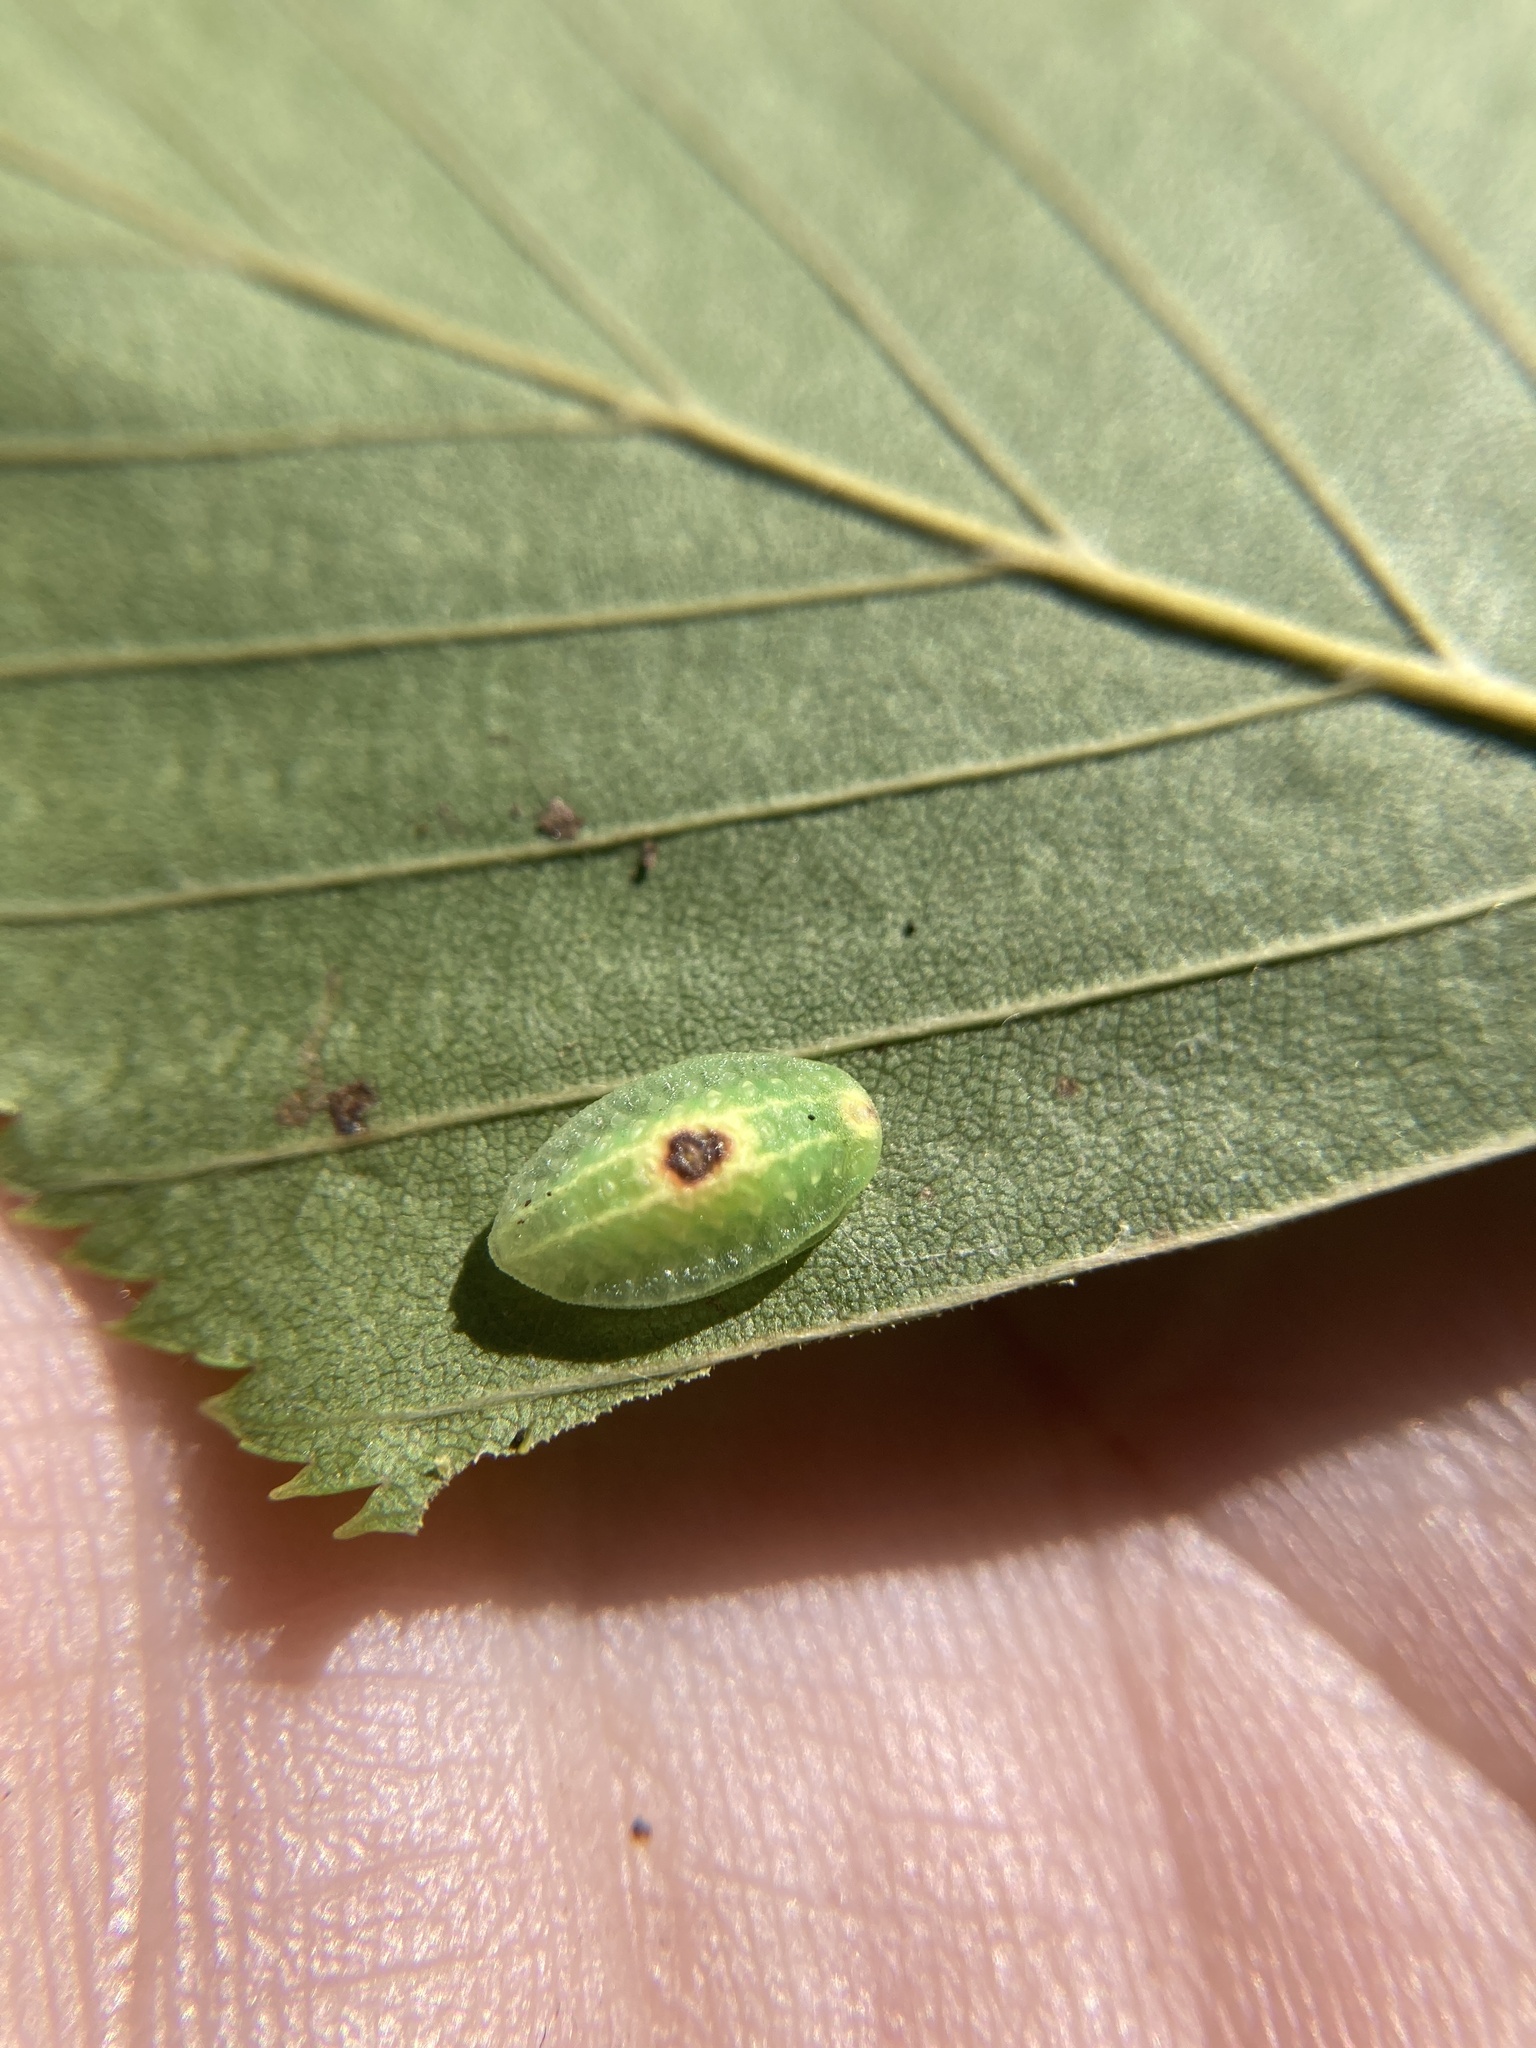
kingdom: Animalia
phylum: Arthropoda
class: Insecta
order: Lepidoptera
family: Limacodidae
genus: Tortricidia
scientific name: Tortricidia flexuosa
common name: Abbreviated button slug moth
